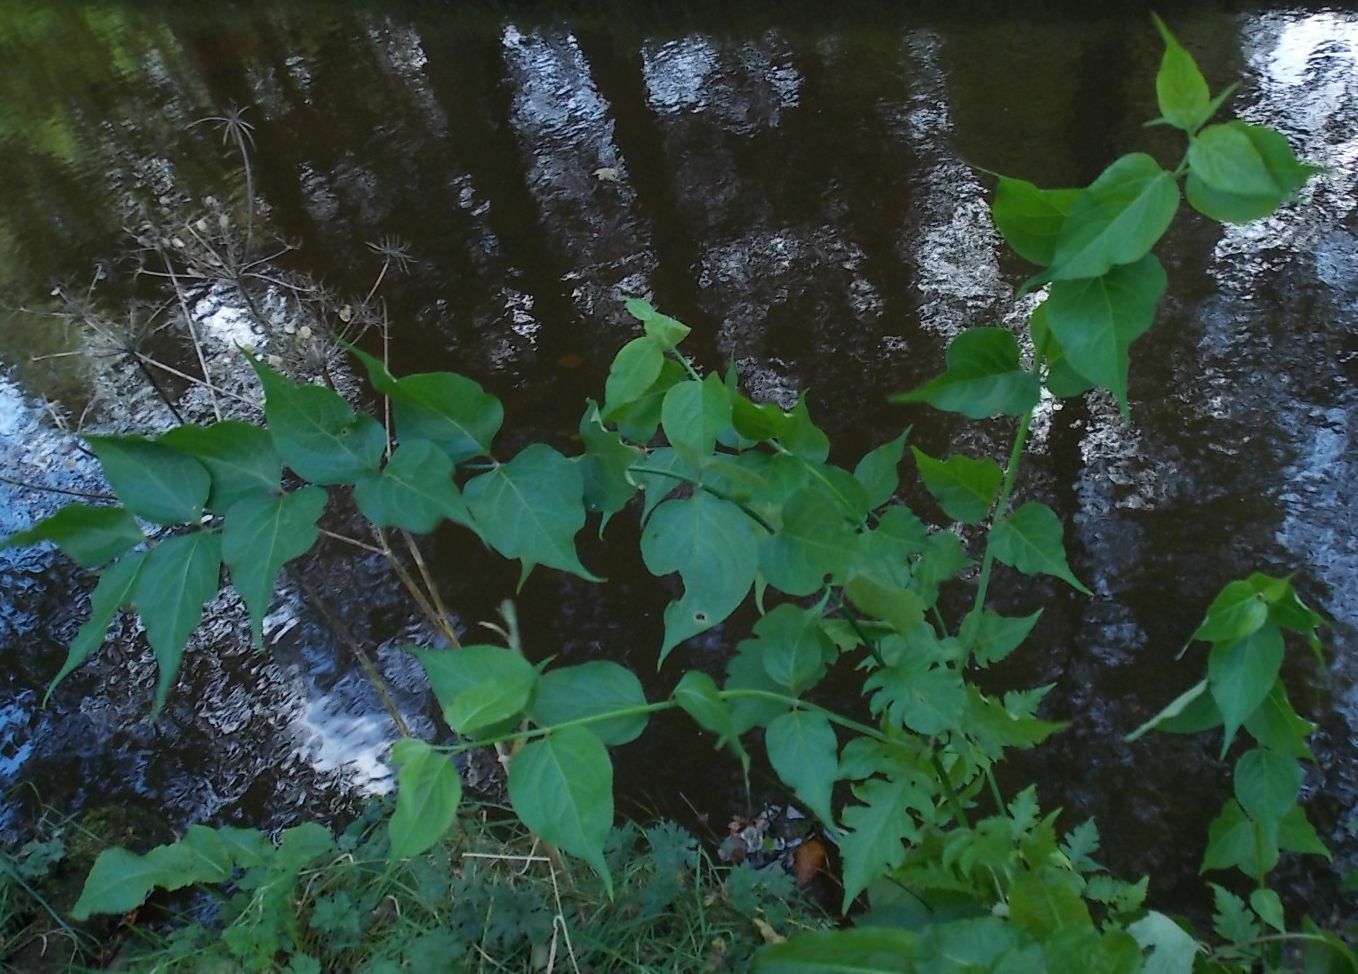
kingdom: Plantae
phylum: Tracheophyta
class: Magnoliopsida
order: Dipsacales
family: Caprifoliaceae
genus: Leycesteria
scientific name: Leycesteria formosa
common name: Himalayan honeysuckle
